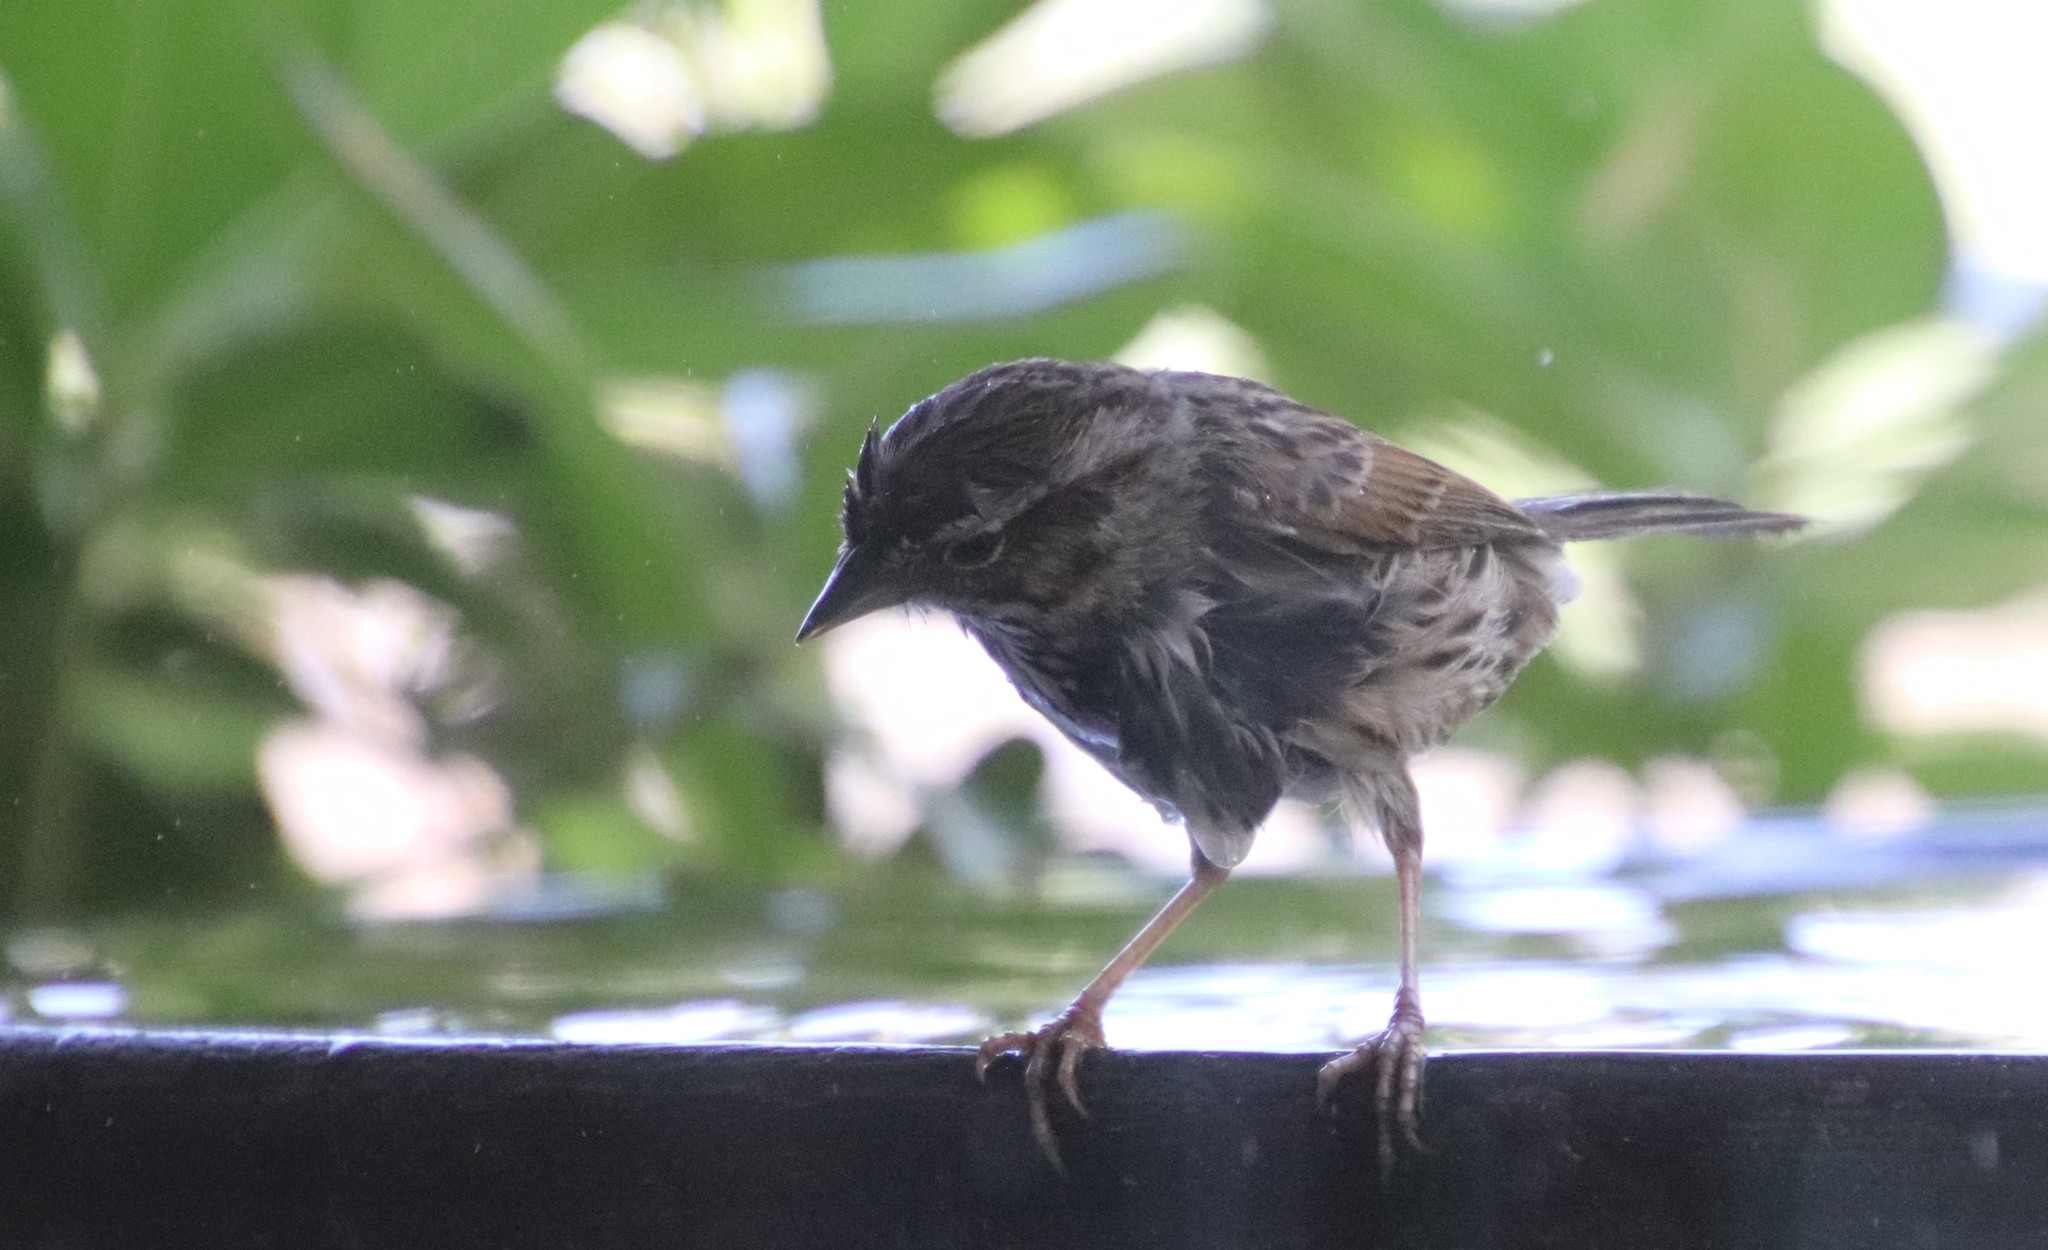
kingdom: Animalia
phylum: Chordata
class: Aves
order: Passeriformes
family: Passerellidae
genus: Melospiza
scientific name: Melospiza melodia
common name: Song sparrow
